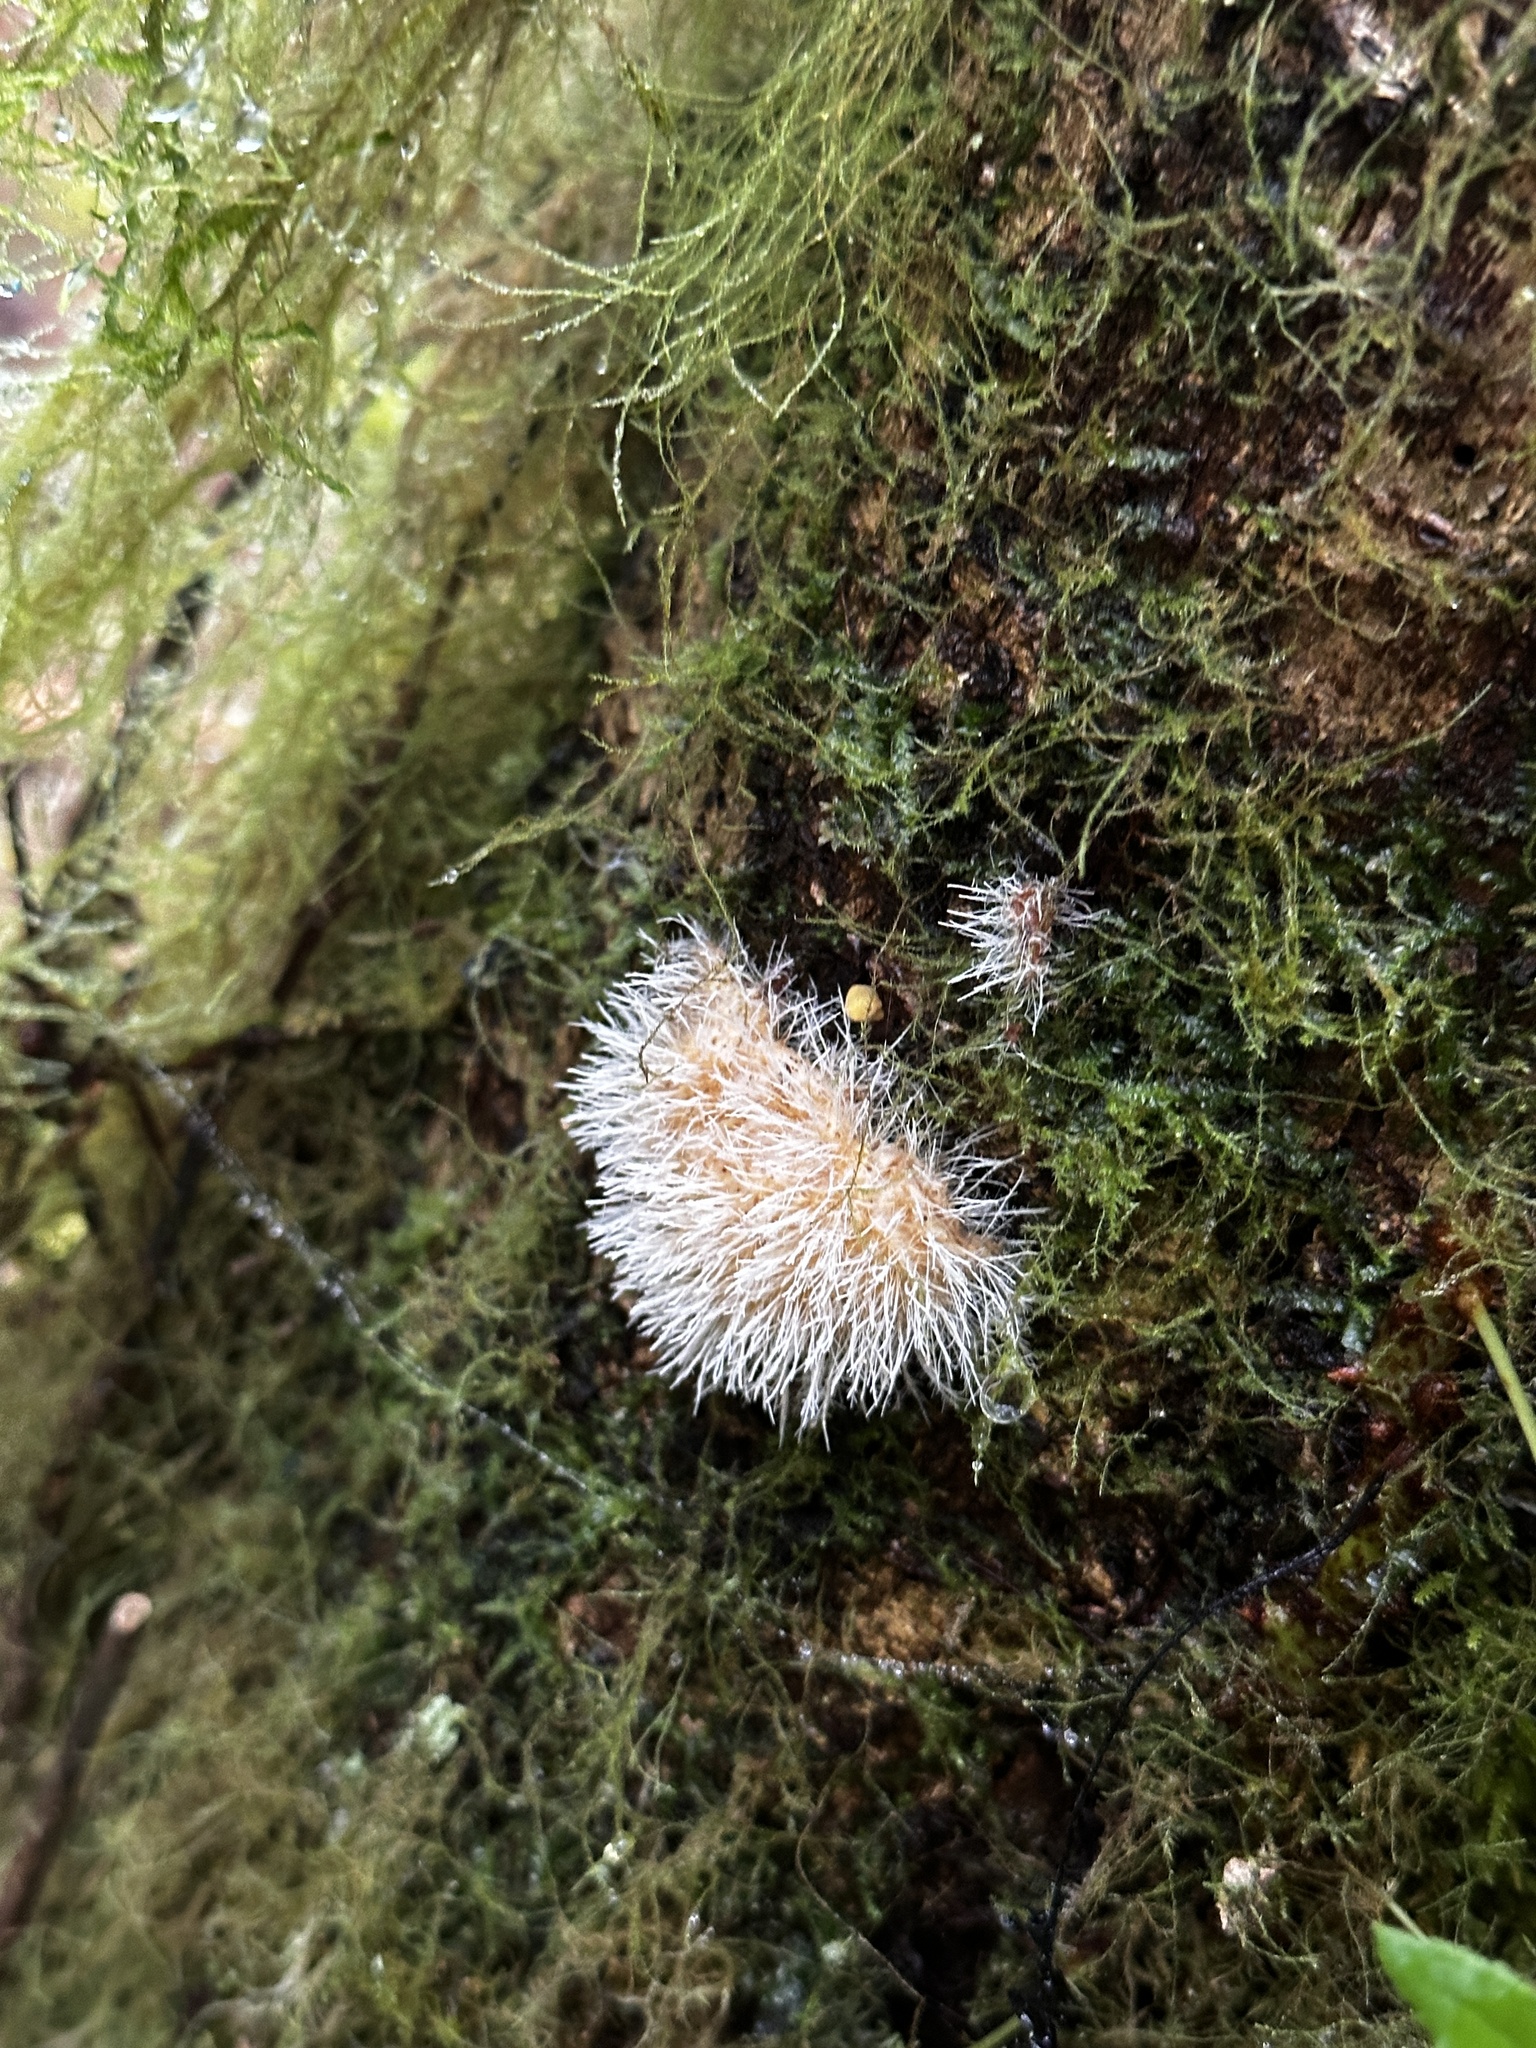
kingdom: Fungi
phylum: Ascomycota
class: Sordariomycetes
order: Hypocreales
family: Tilachlidiaceae
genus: Tilachlidium
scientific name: Tilachlidium brachiatum
